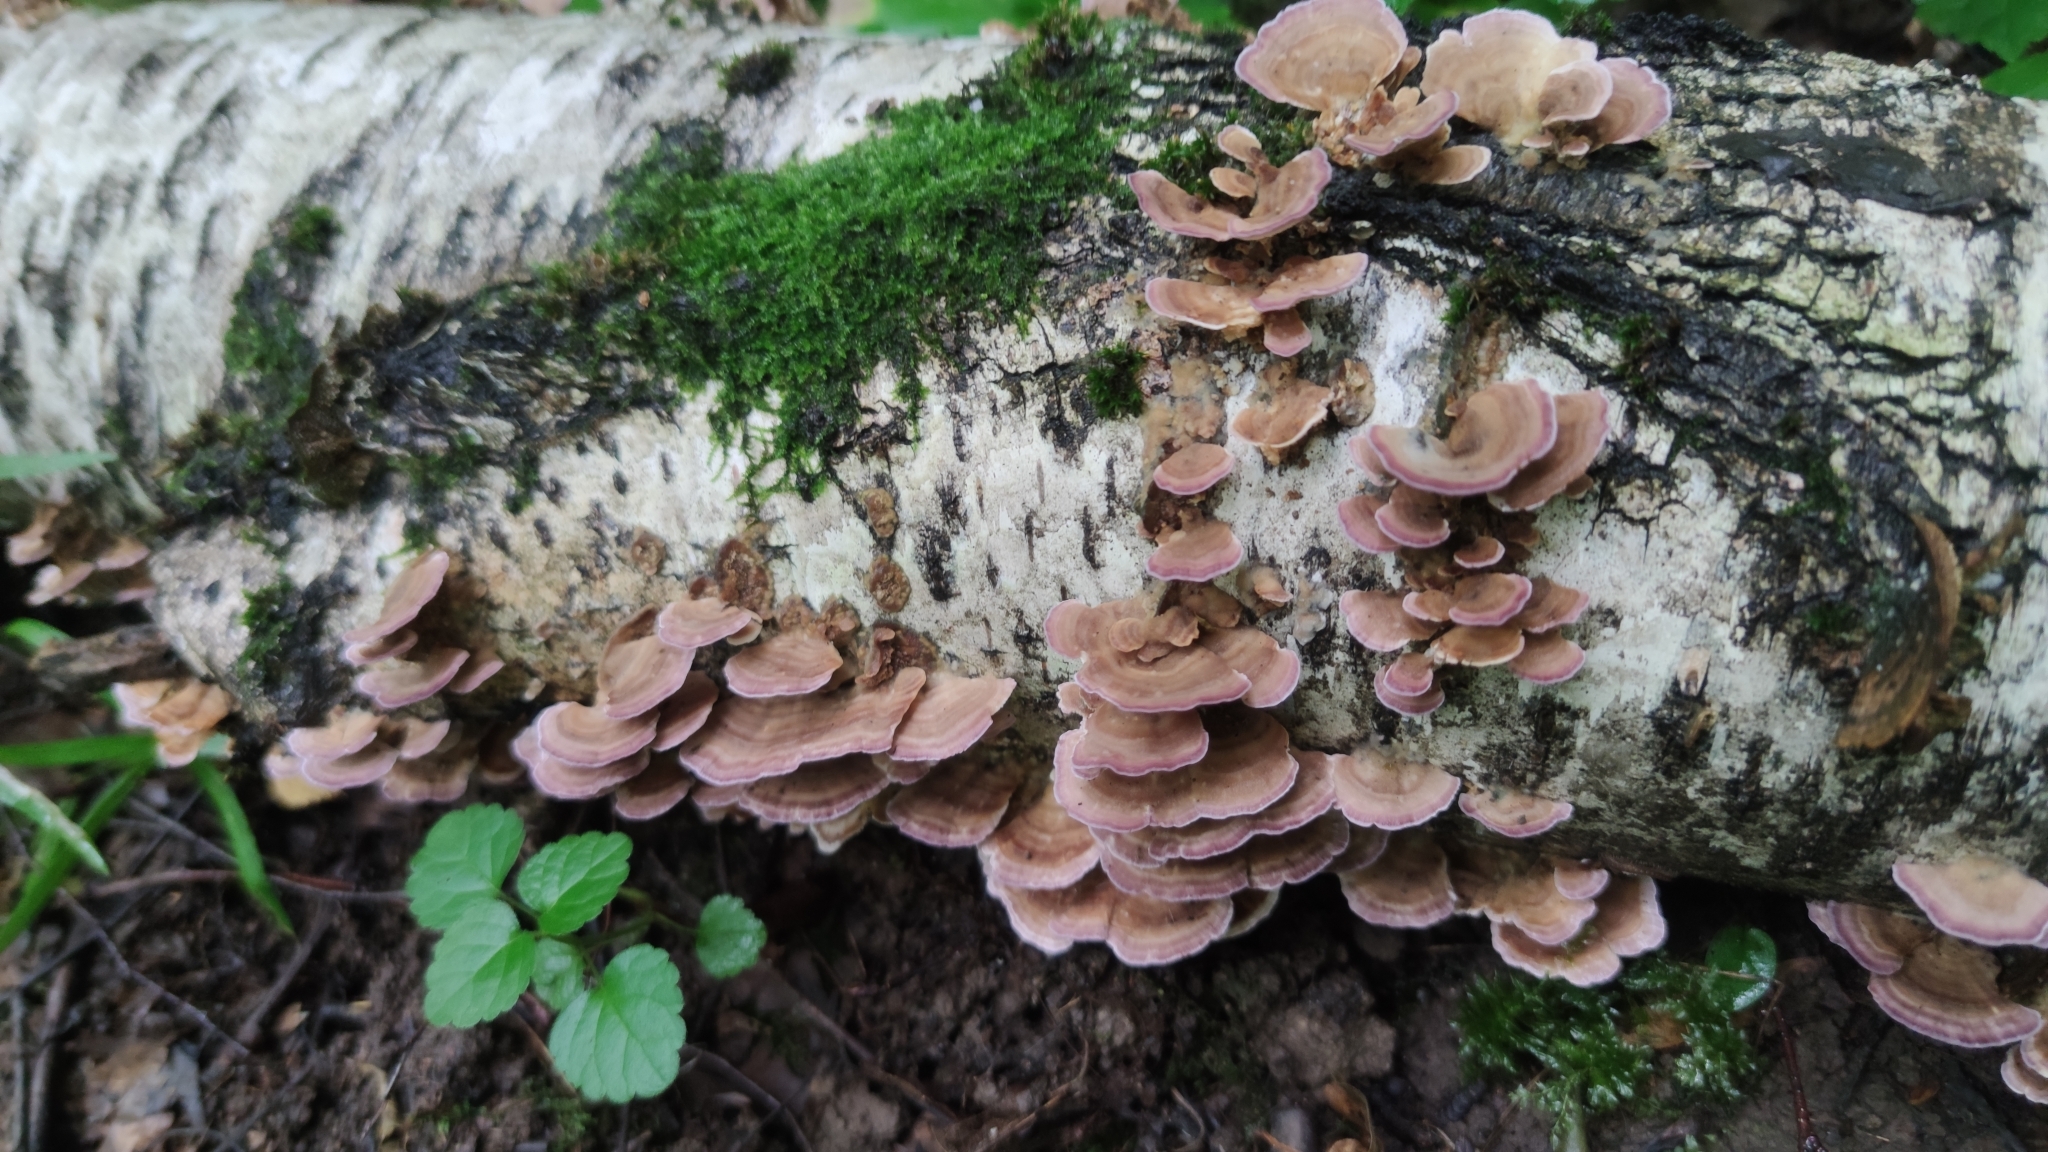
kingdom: Fungi
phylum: Basidiomycota
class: Agaricomycetes
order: Hymenochaetales
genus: Trichaptum
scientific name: Trichaptum biforme
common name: Violet-toothed polypore
